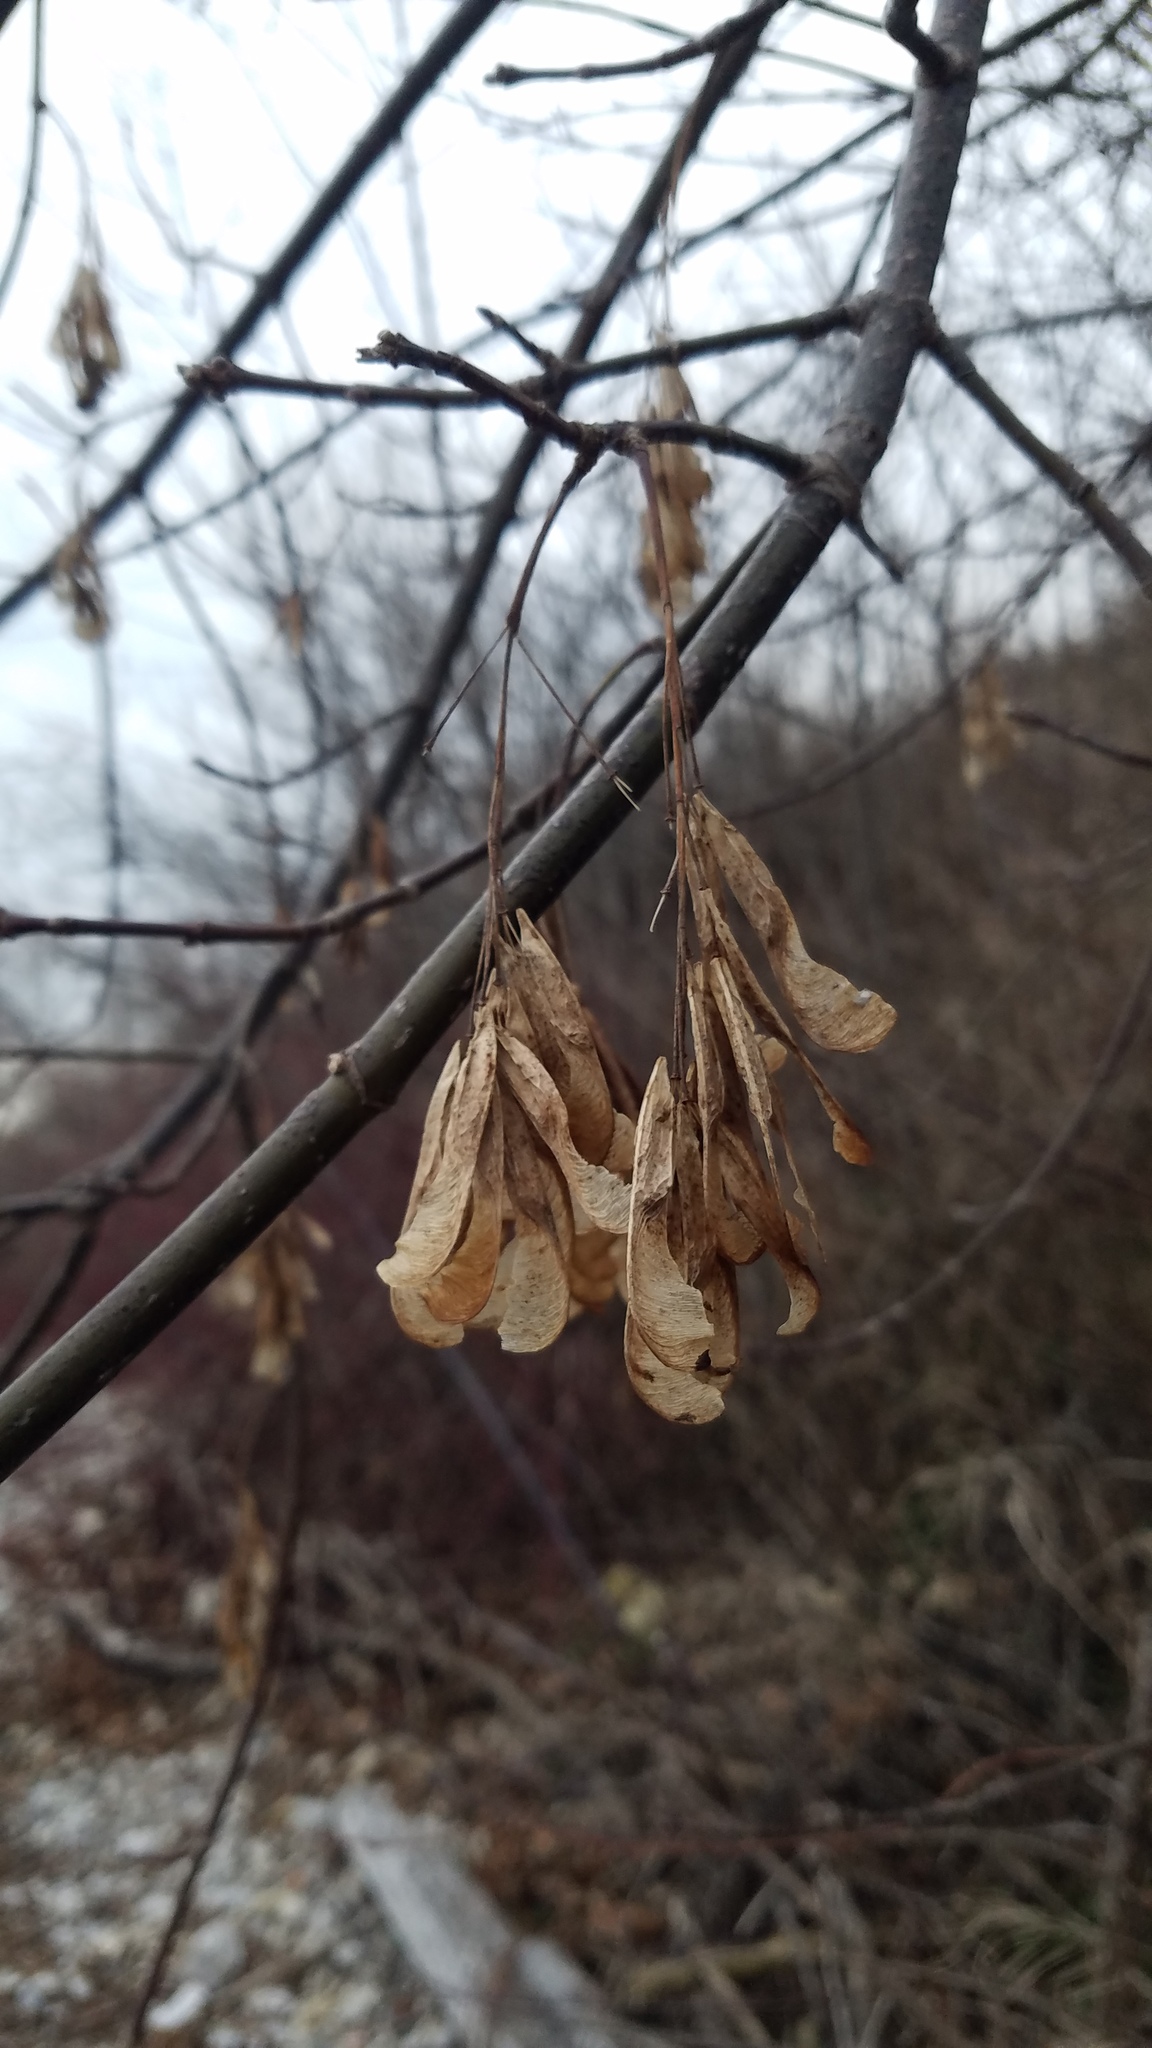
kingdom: Plantae
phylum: Tracheophyta
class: Magnoliopsida
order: Sapindales
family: Sapindaceae
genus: Acer
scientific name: Acer negundo
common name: Ashleaf maple
